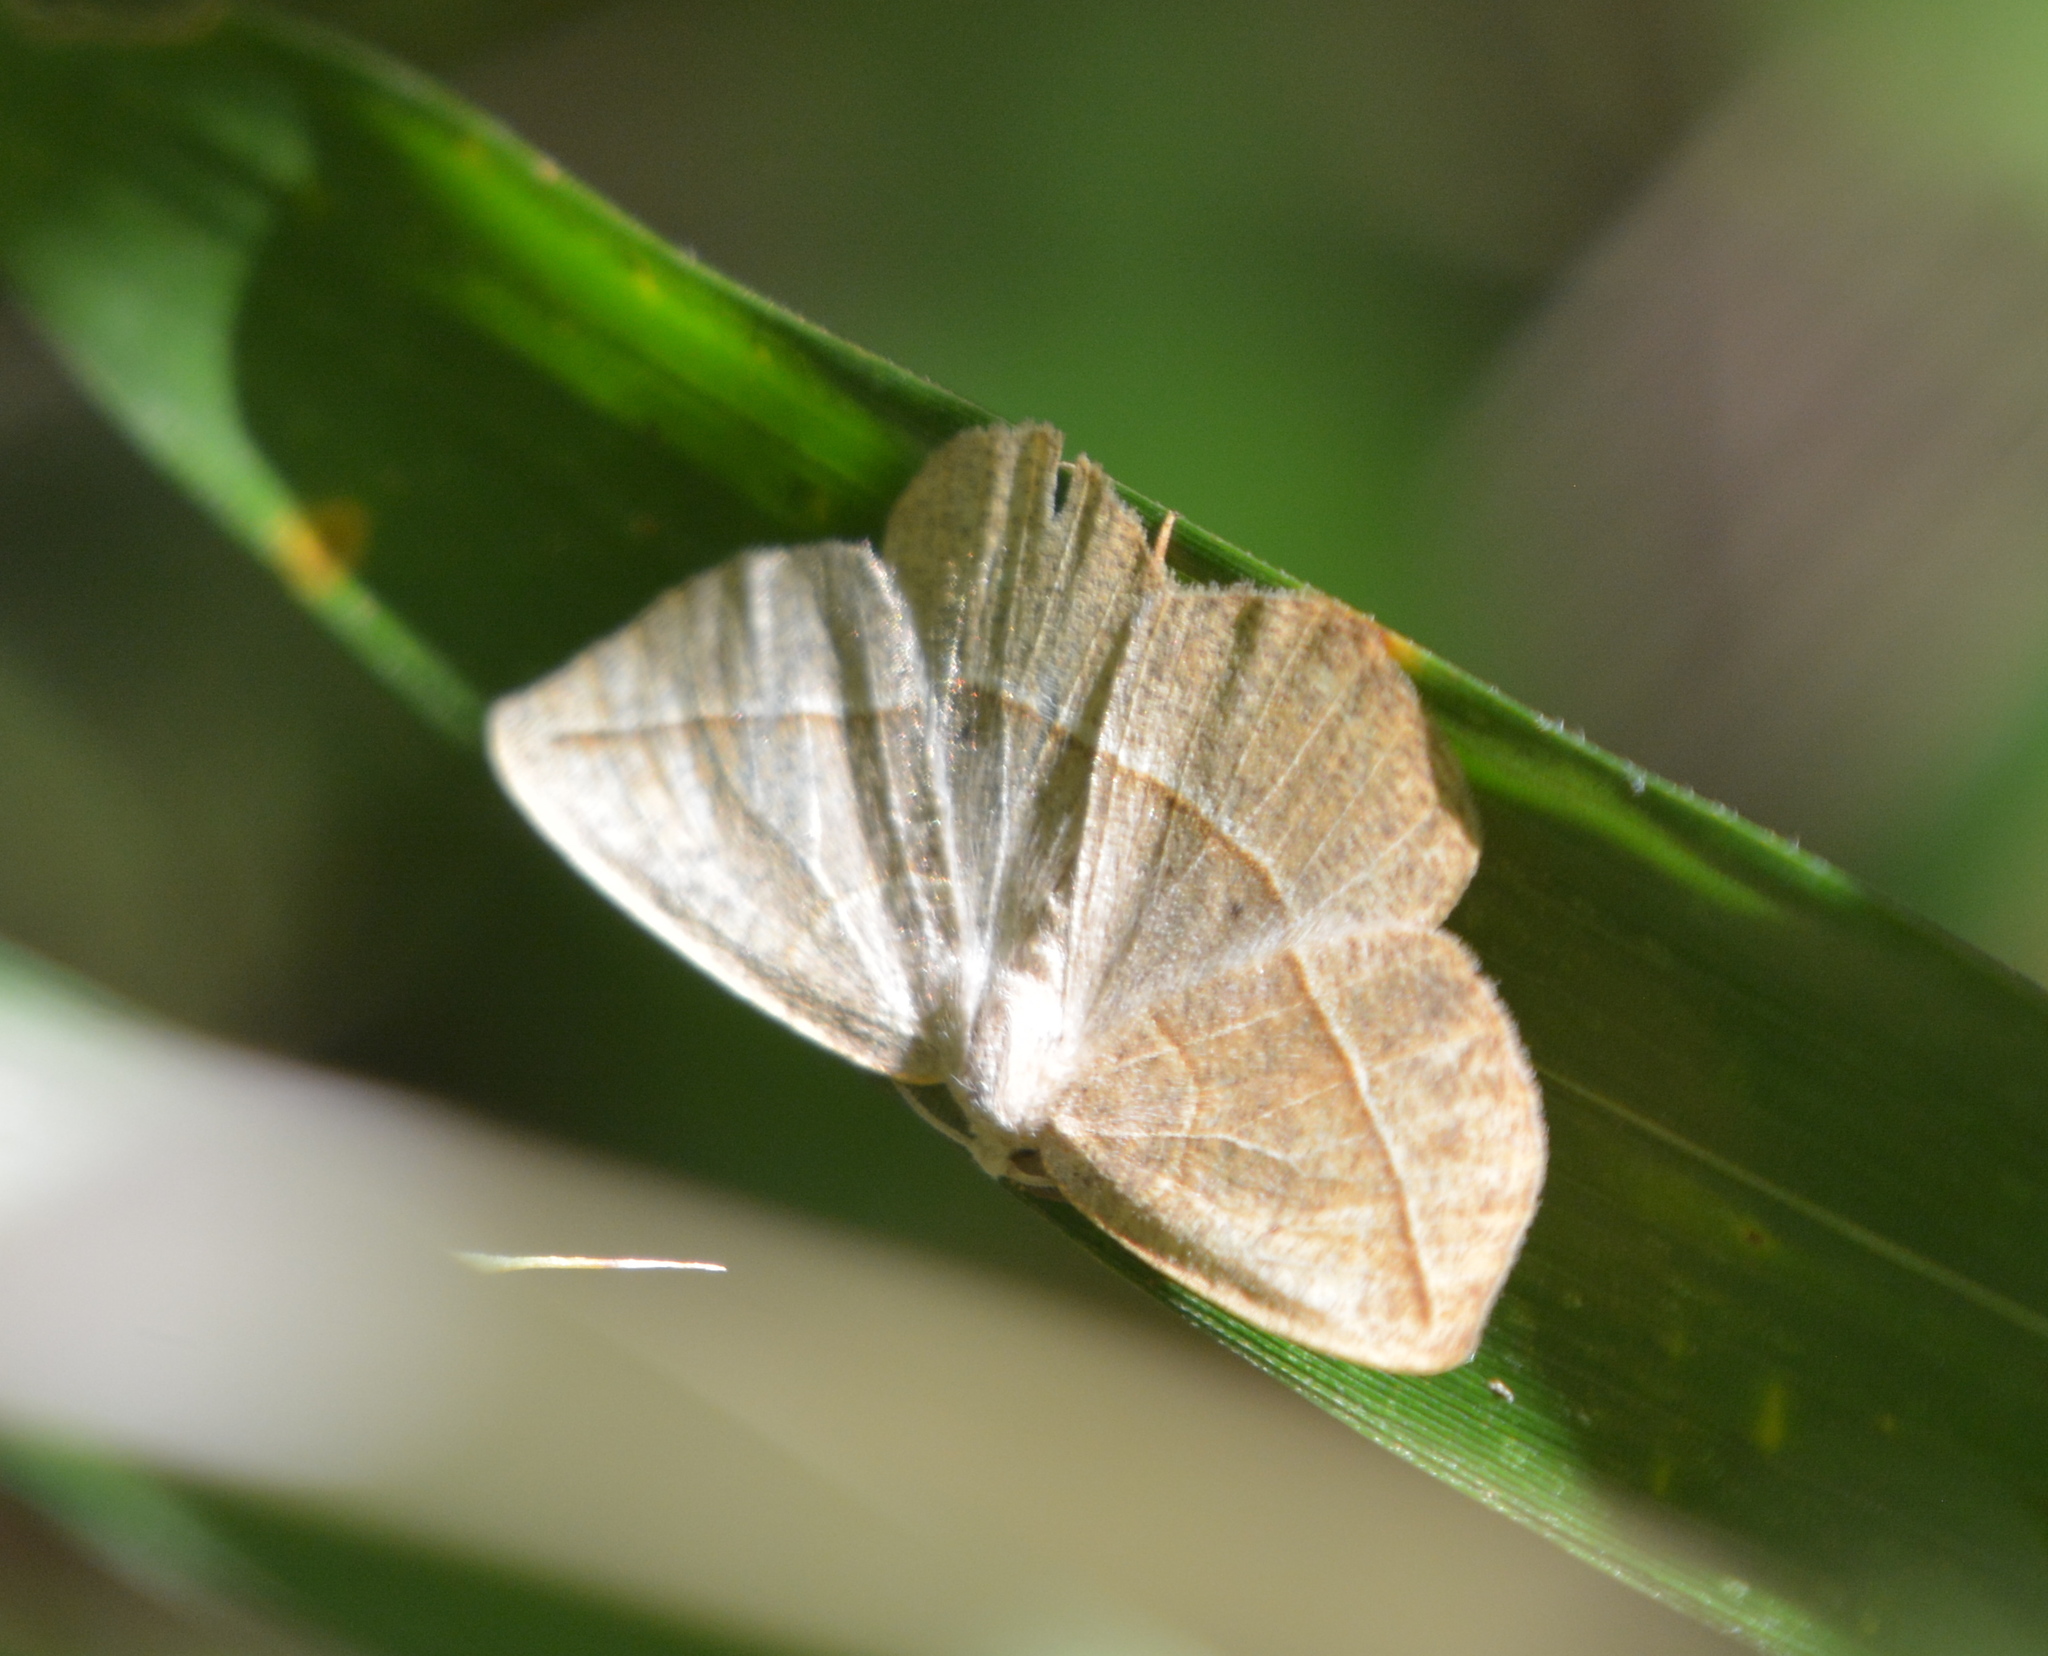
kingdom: Animalia
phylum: Arthropoda
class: Insecta
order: Lepidoptera
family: Geometridae
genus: Eusarca
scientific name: Eusarca confusaria
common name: Confused eusarca
